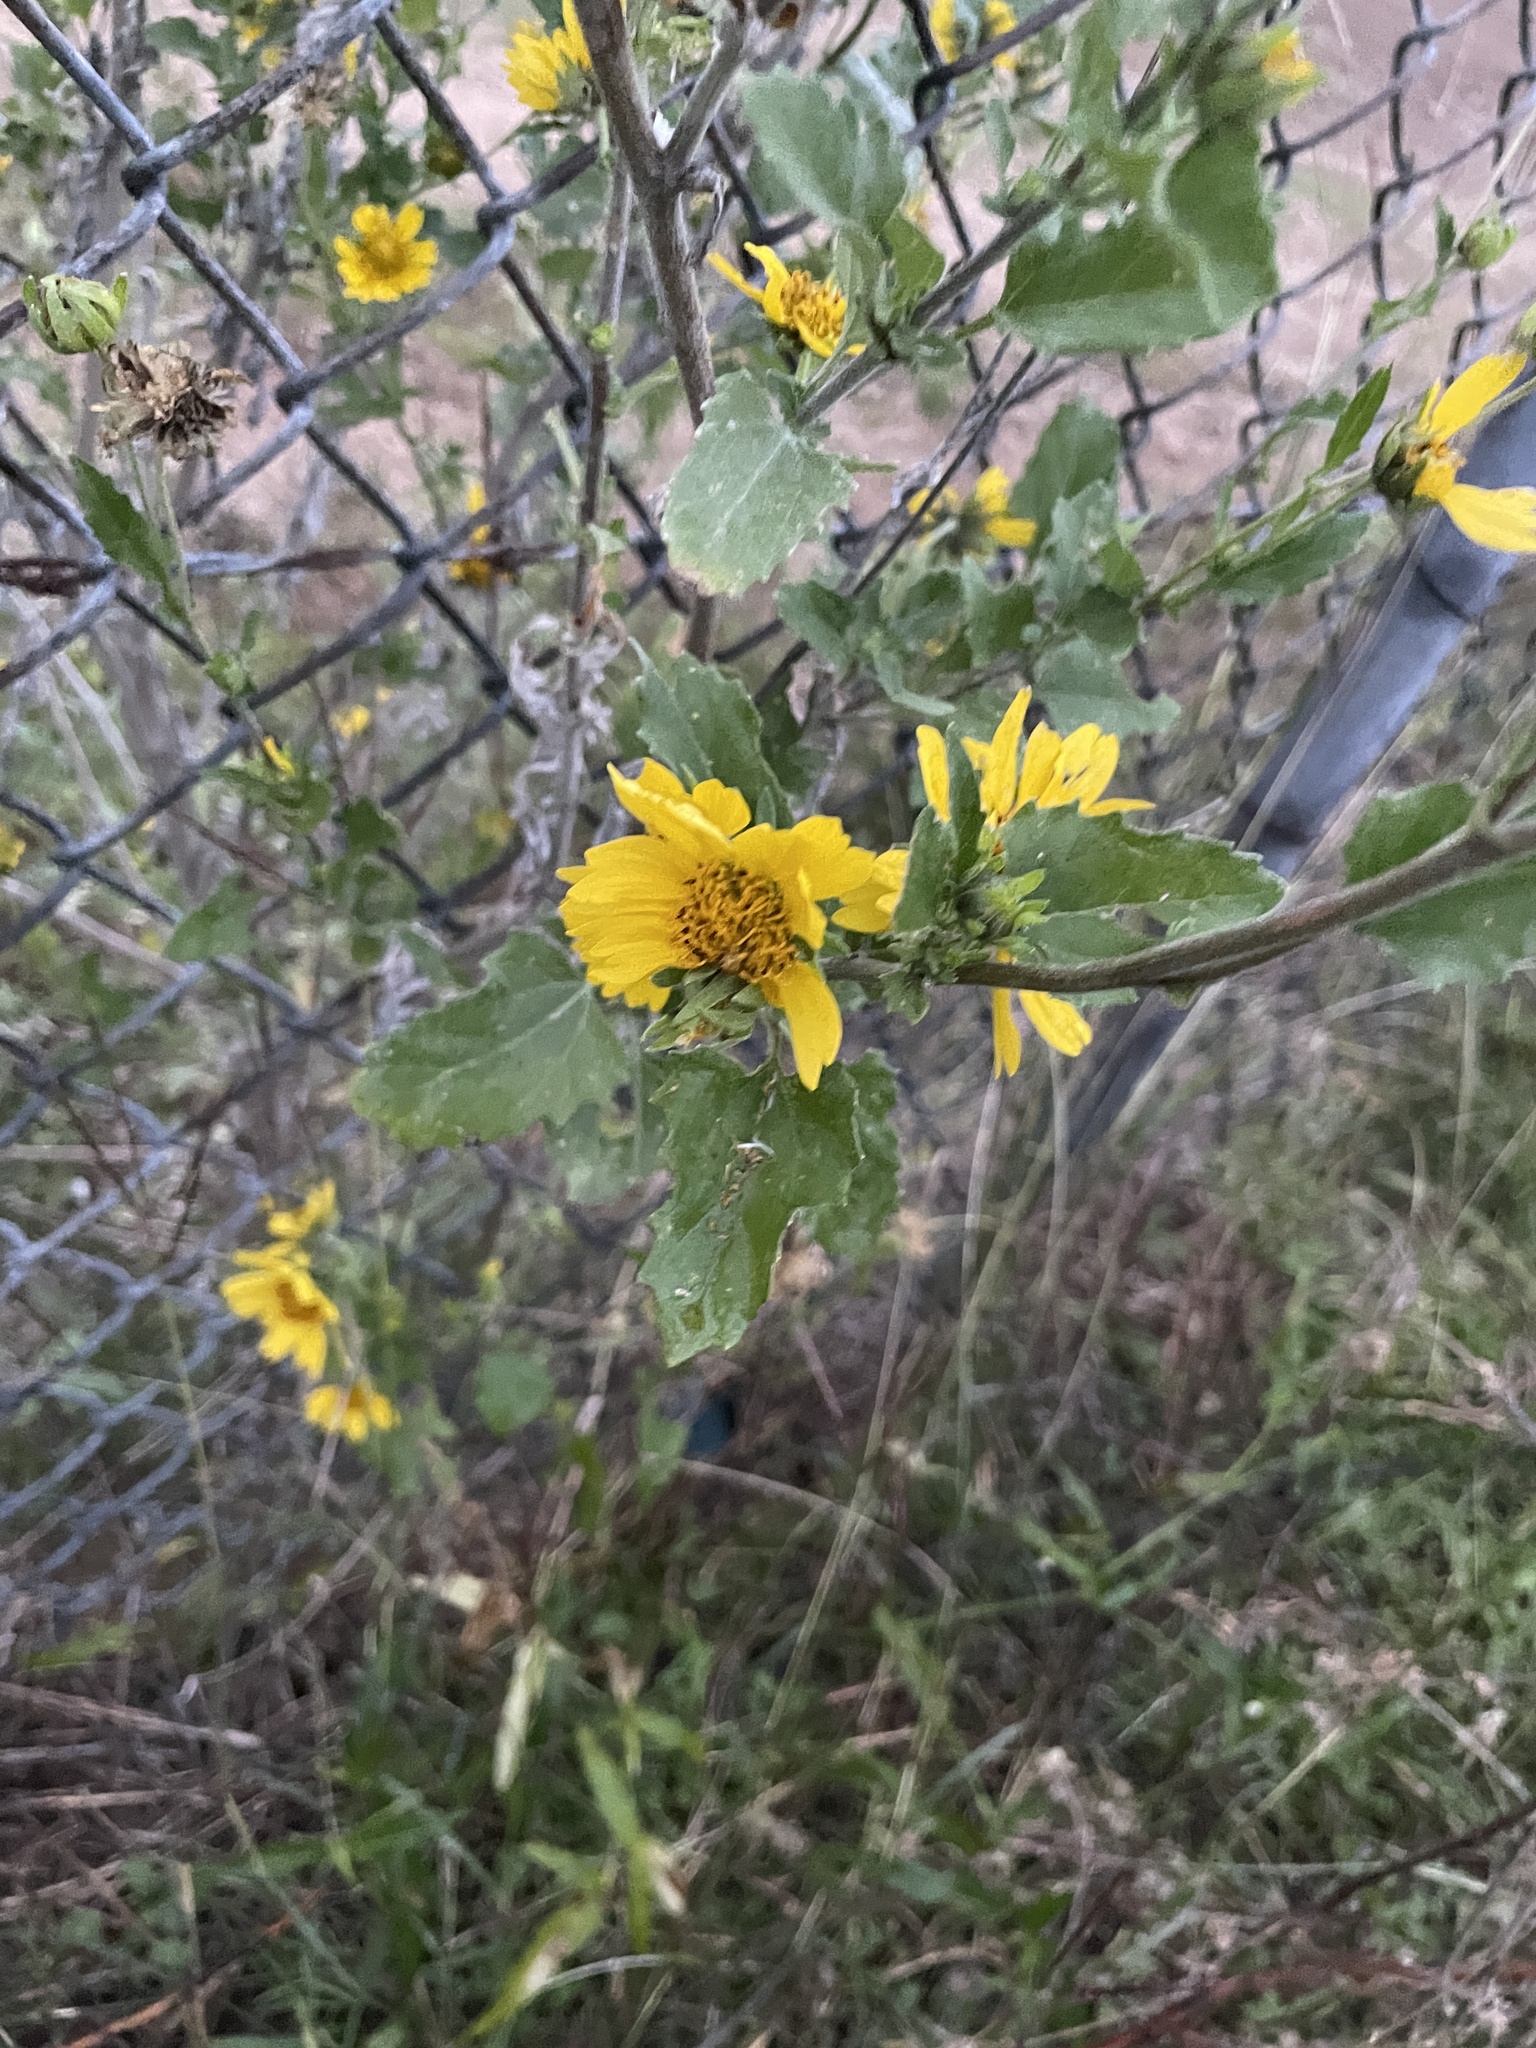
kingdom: Plantae
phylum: Tracheophyta
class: Magnoliopsida
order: Asterales
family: Asteraceae
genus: Verbesina
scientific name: Verbesina encelioides
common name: Golden crownbeard
